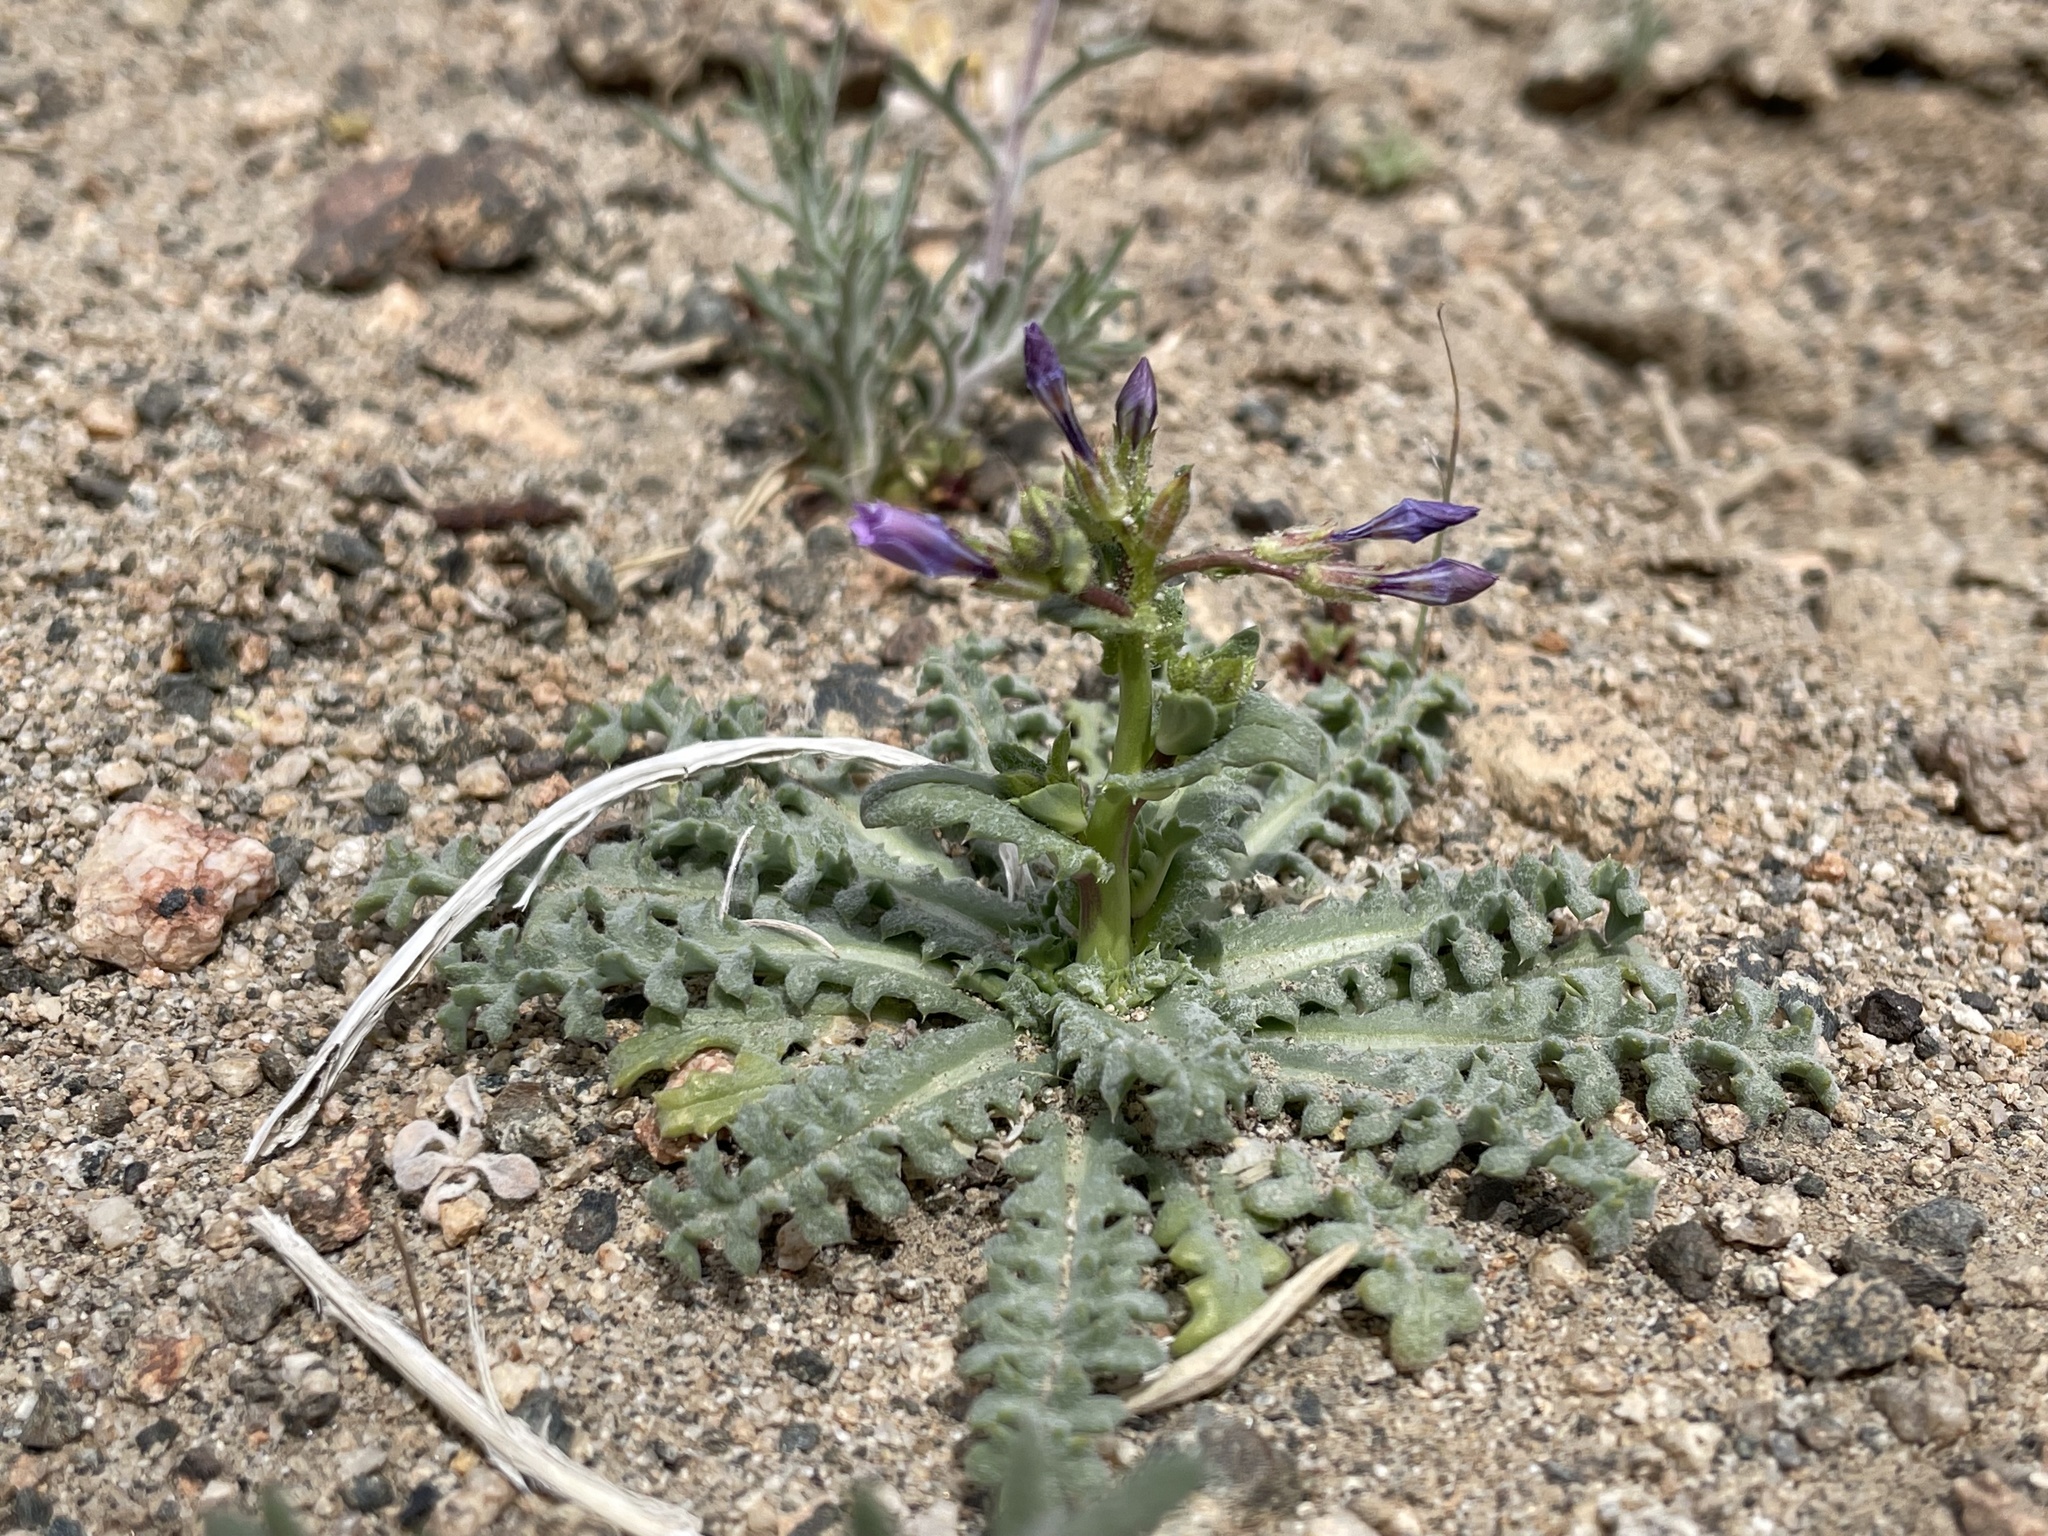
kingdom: Plantae
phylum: Tracheophyta
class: Magnoliopsida
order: Ericales
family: Polemoniaceae
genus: Gilia
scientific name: Gilia sinuata
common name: Rosy gilia
